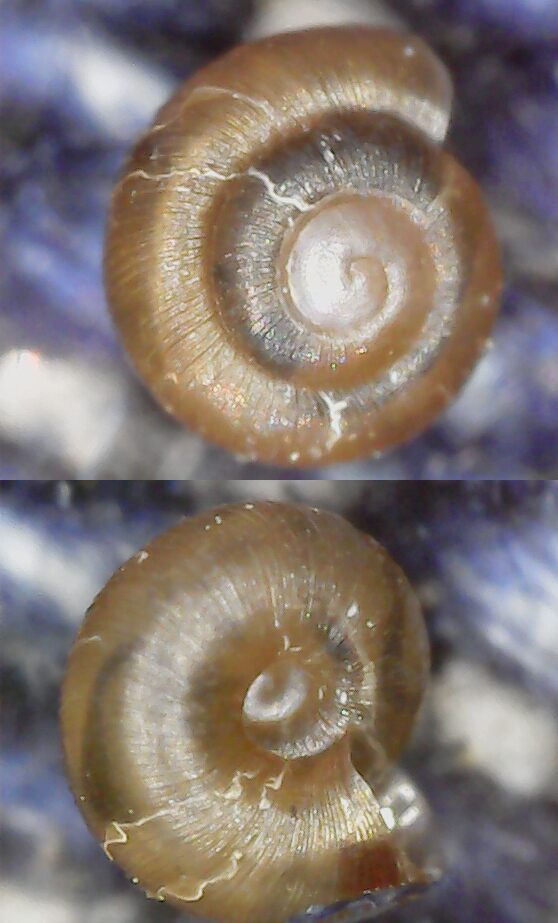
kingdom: Animalia
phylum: Mollusca
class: Gastropoda
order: Stylommatophora
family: Punctidae
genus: Punctum
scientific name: Punctum pygmaeum
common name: Dwarf snail
